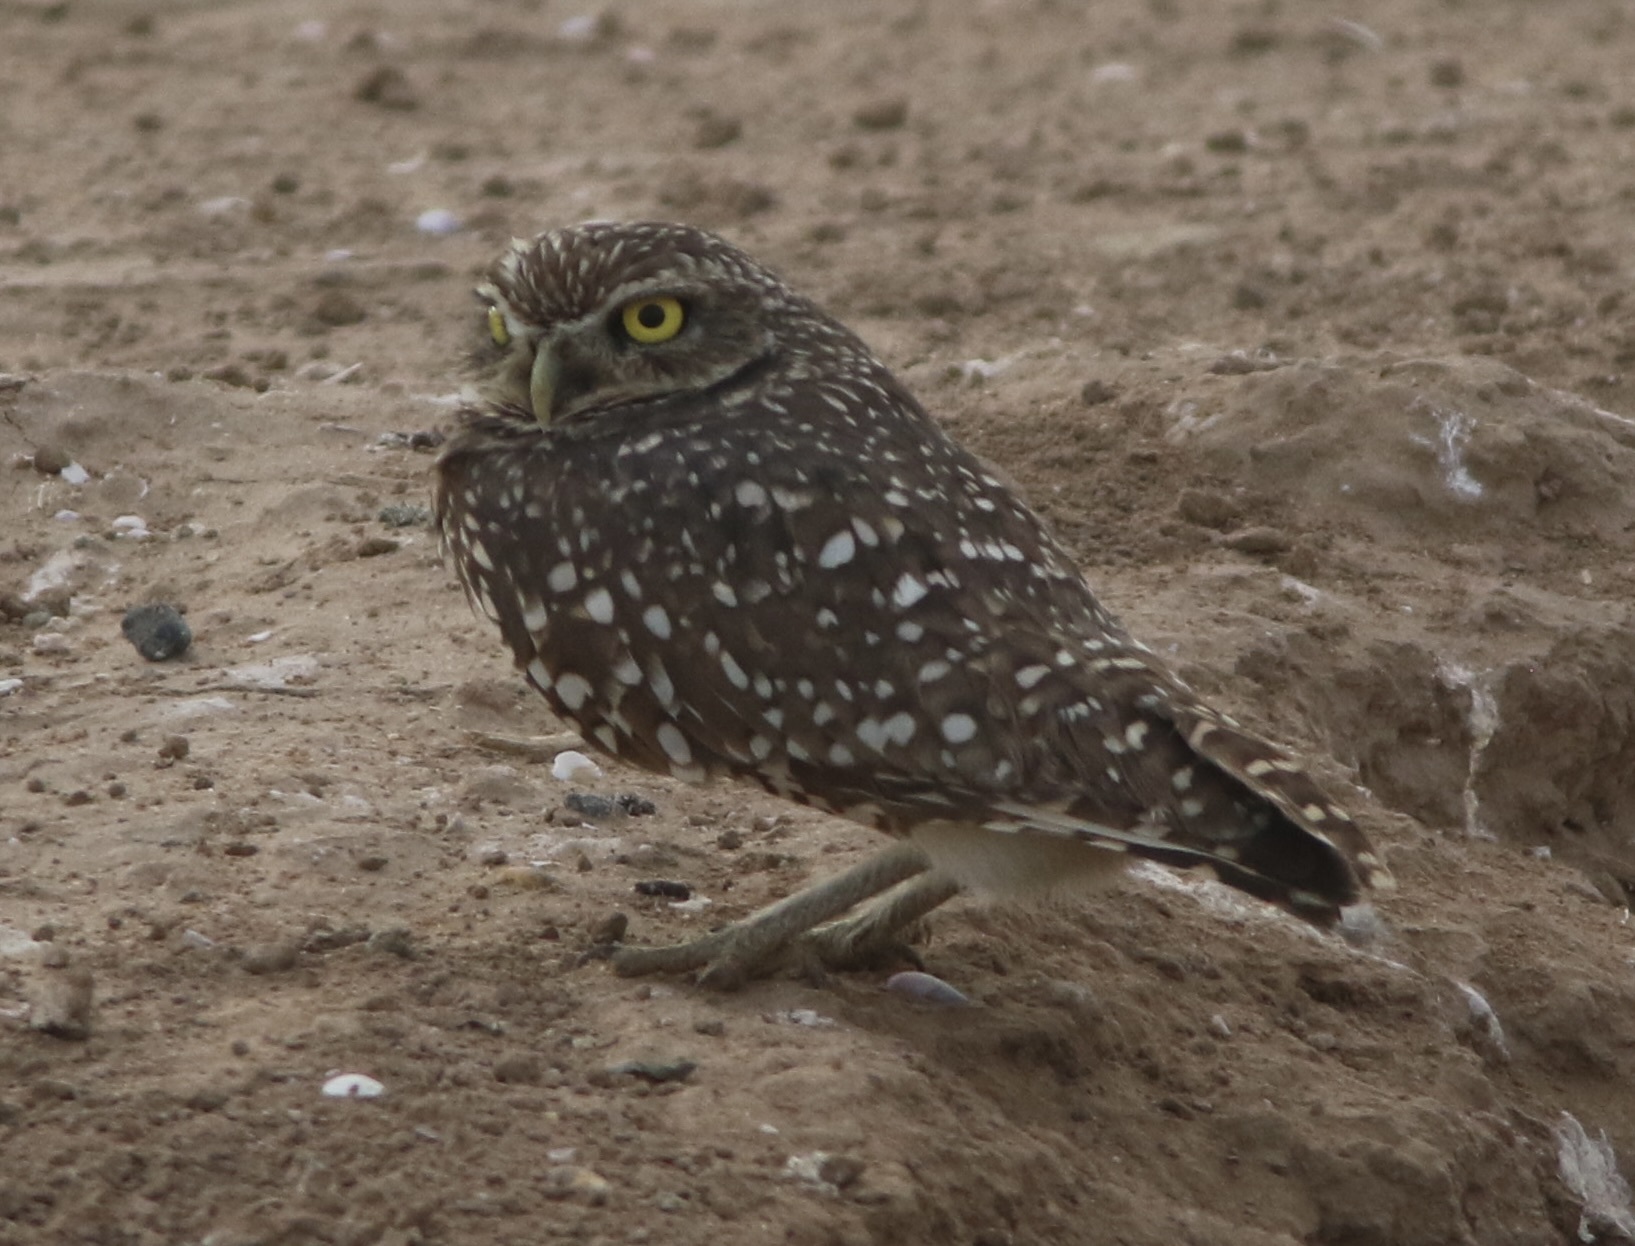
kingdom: Animalia
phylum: Chordata
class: Aves
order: Strigiformes
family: Strigidae
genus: Athene
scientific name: Athene cunicularia
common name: Burrowing owl
